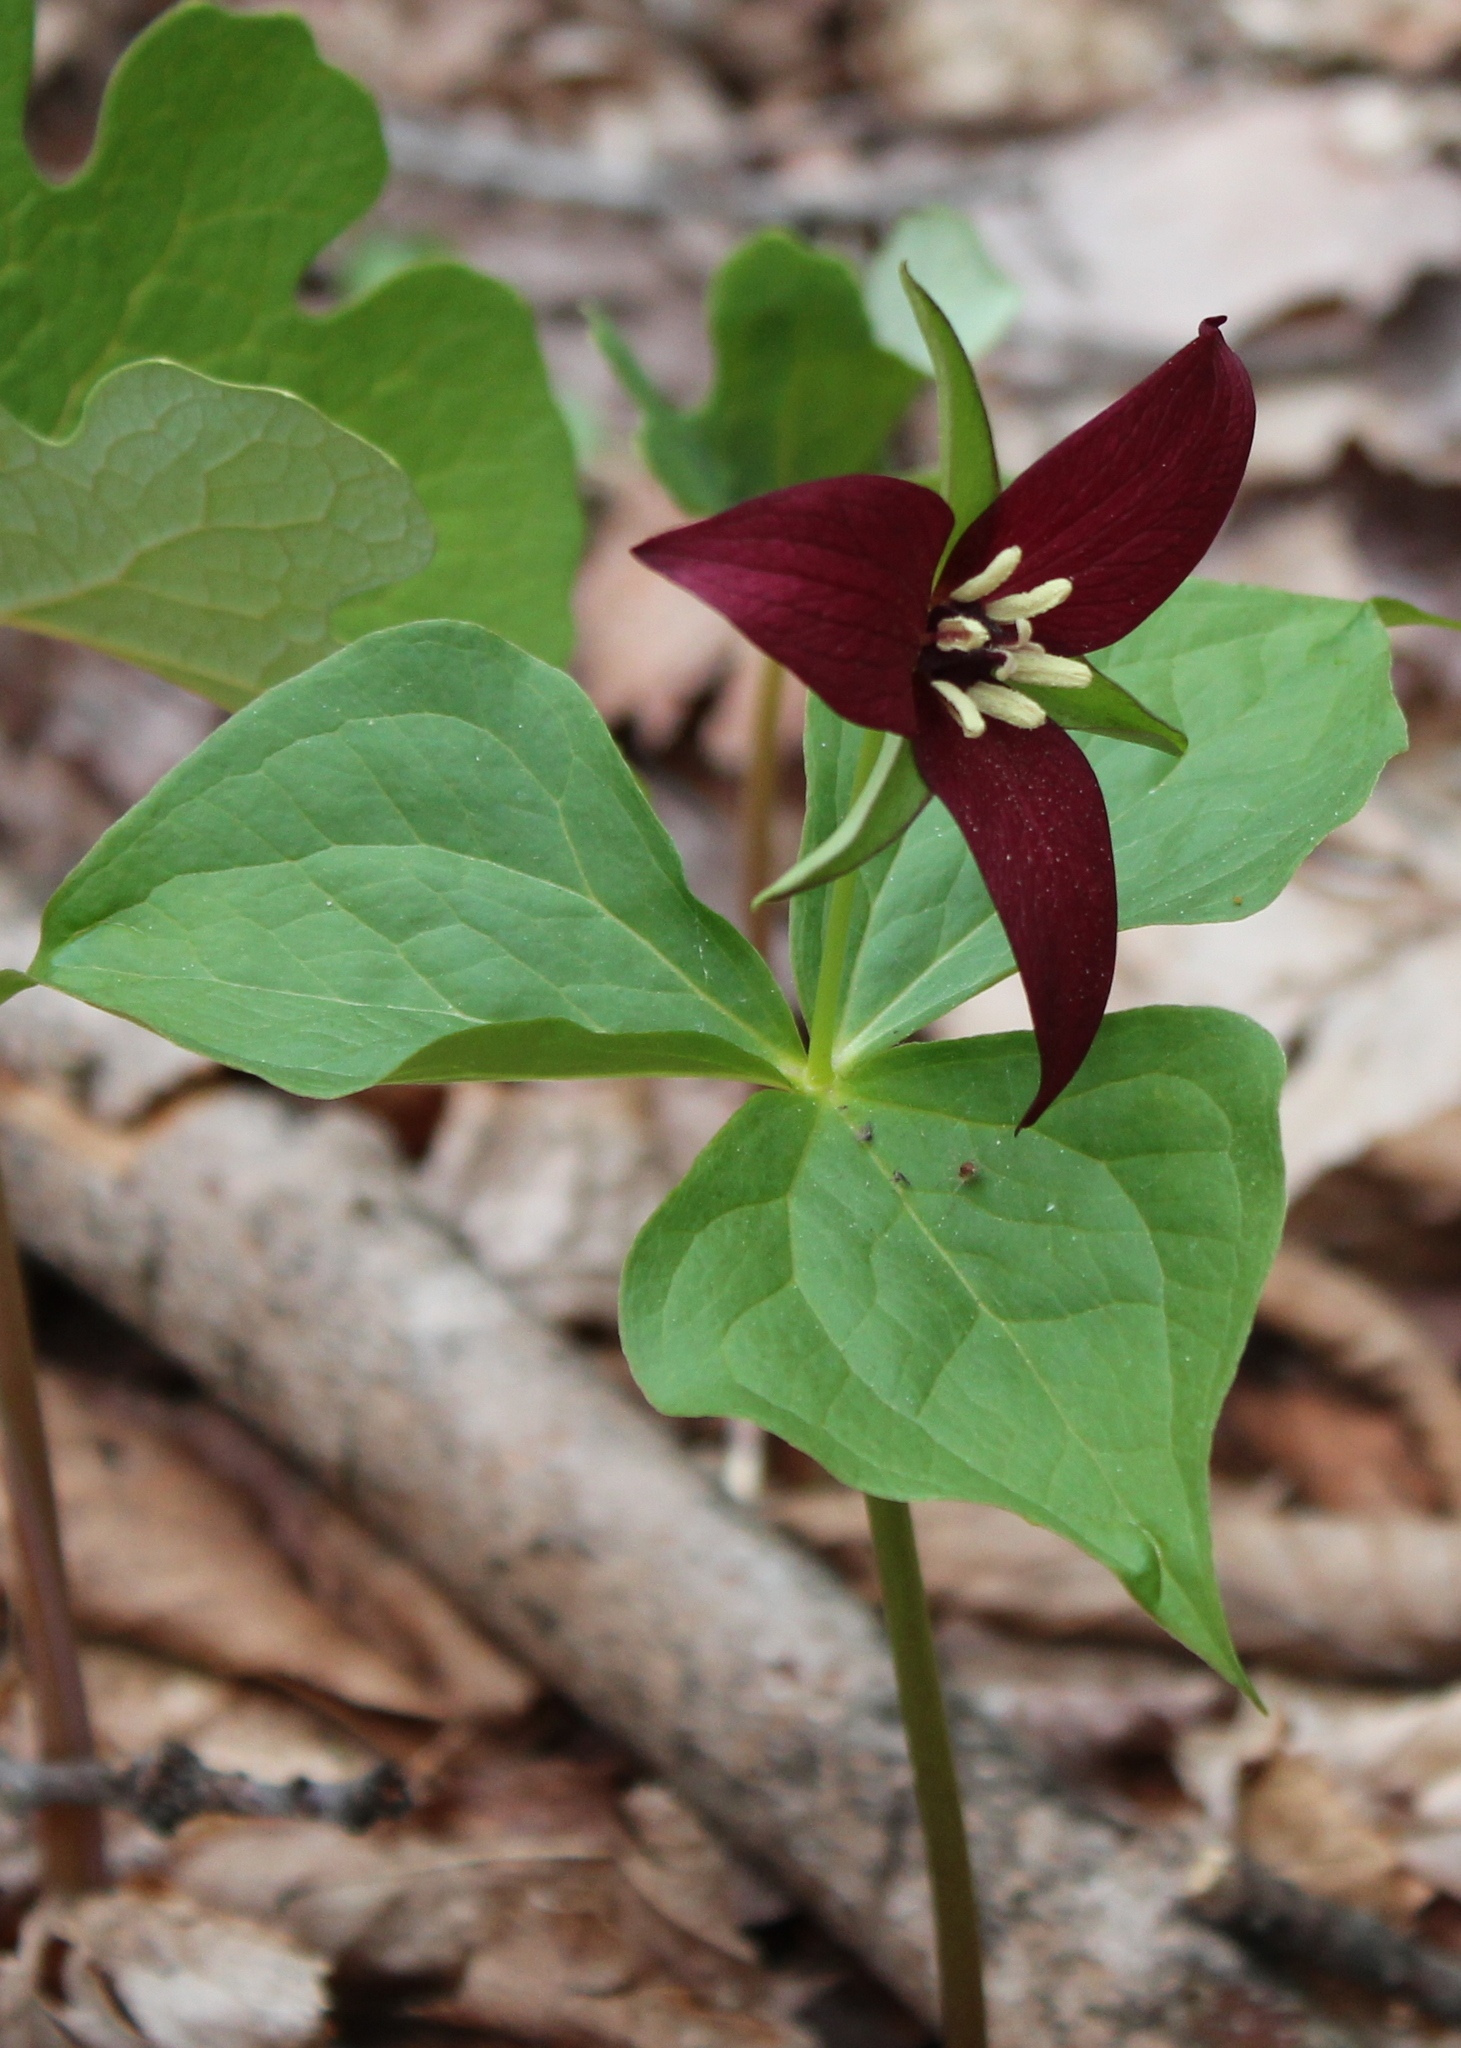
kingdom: Plantae
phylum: Tracheophyta
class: Liliopsida
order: Liliales
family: Melanthiaceae
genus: Trillium
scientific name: Trillium erectum
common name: Purple trillium
